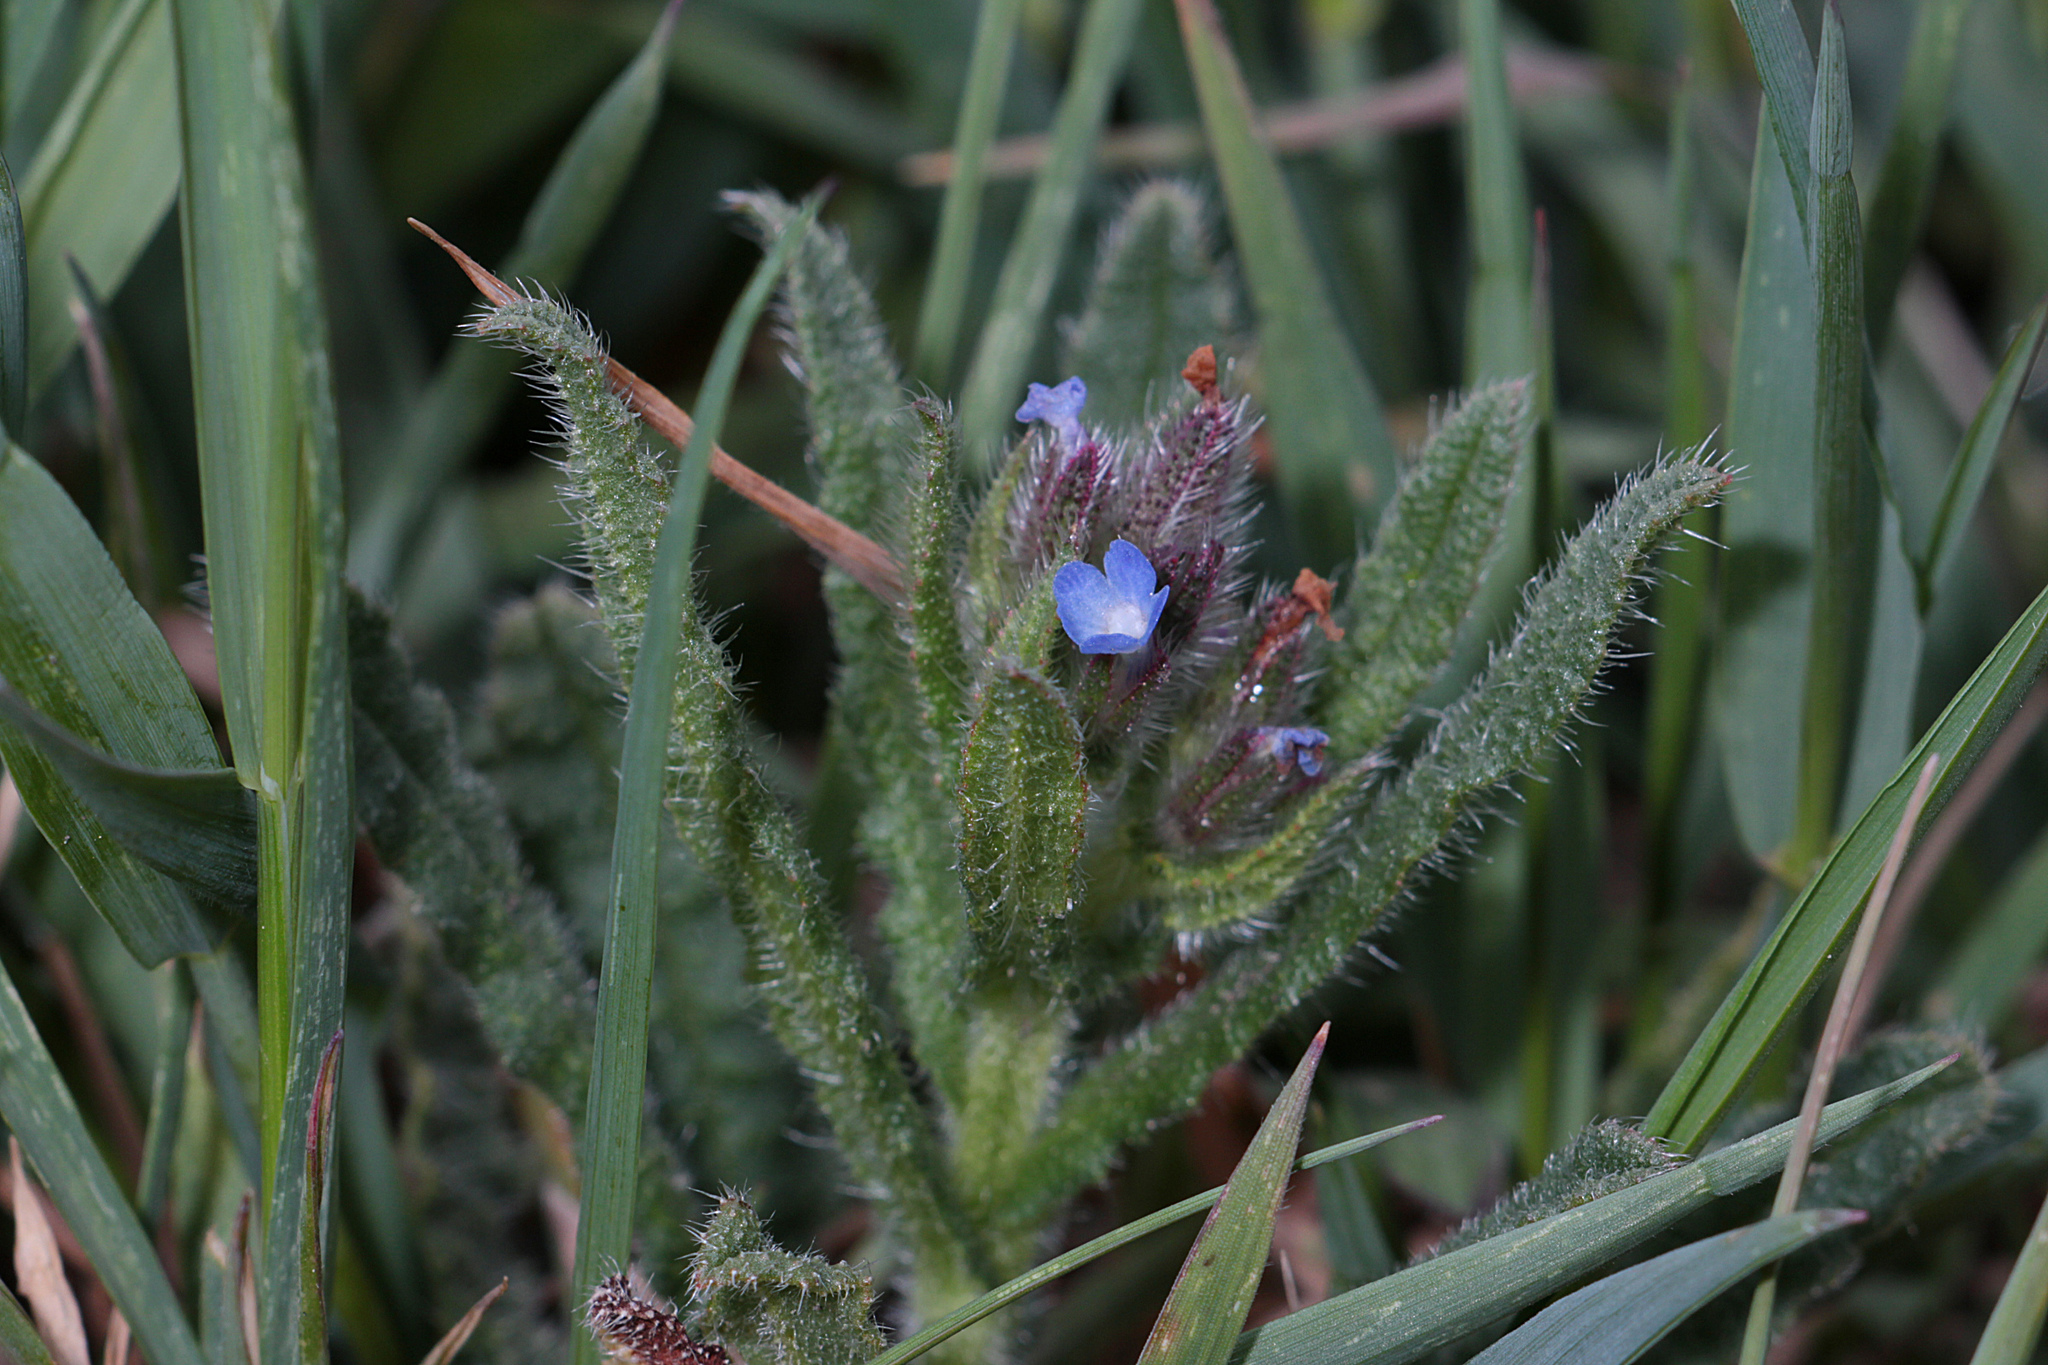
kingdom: Plantae
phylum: Tracheophyta
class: Magnoliopsida
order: Boraginales
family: Boraginaceae
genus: Lycopsis
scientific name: Lycopsis arvensis
